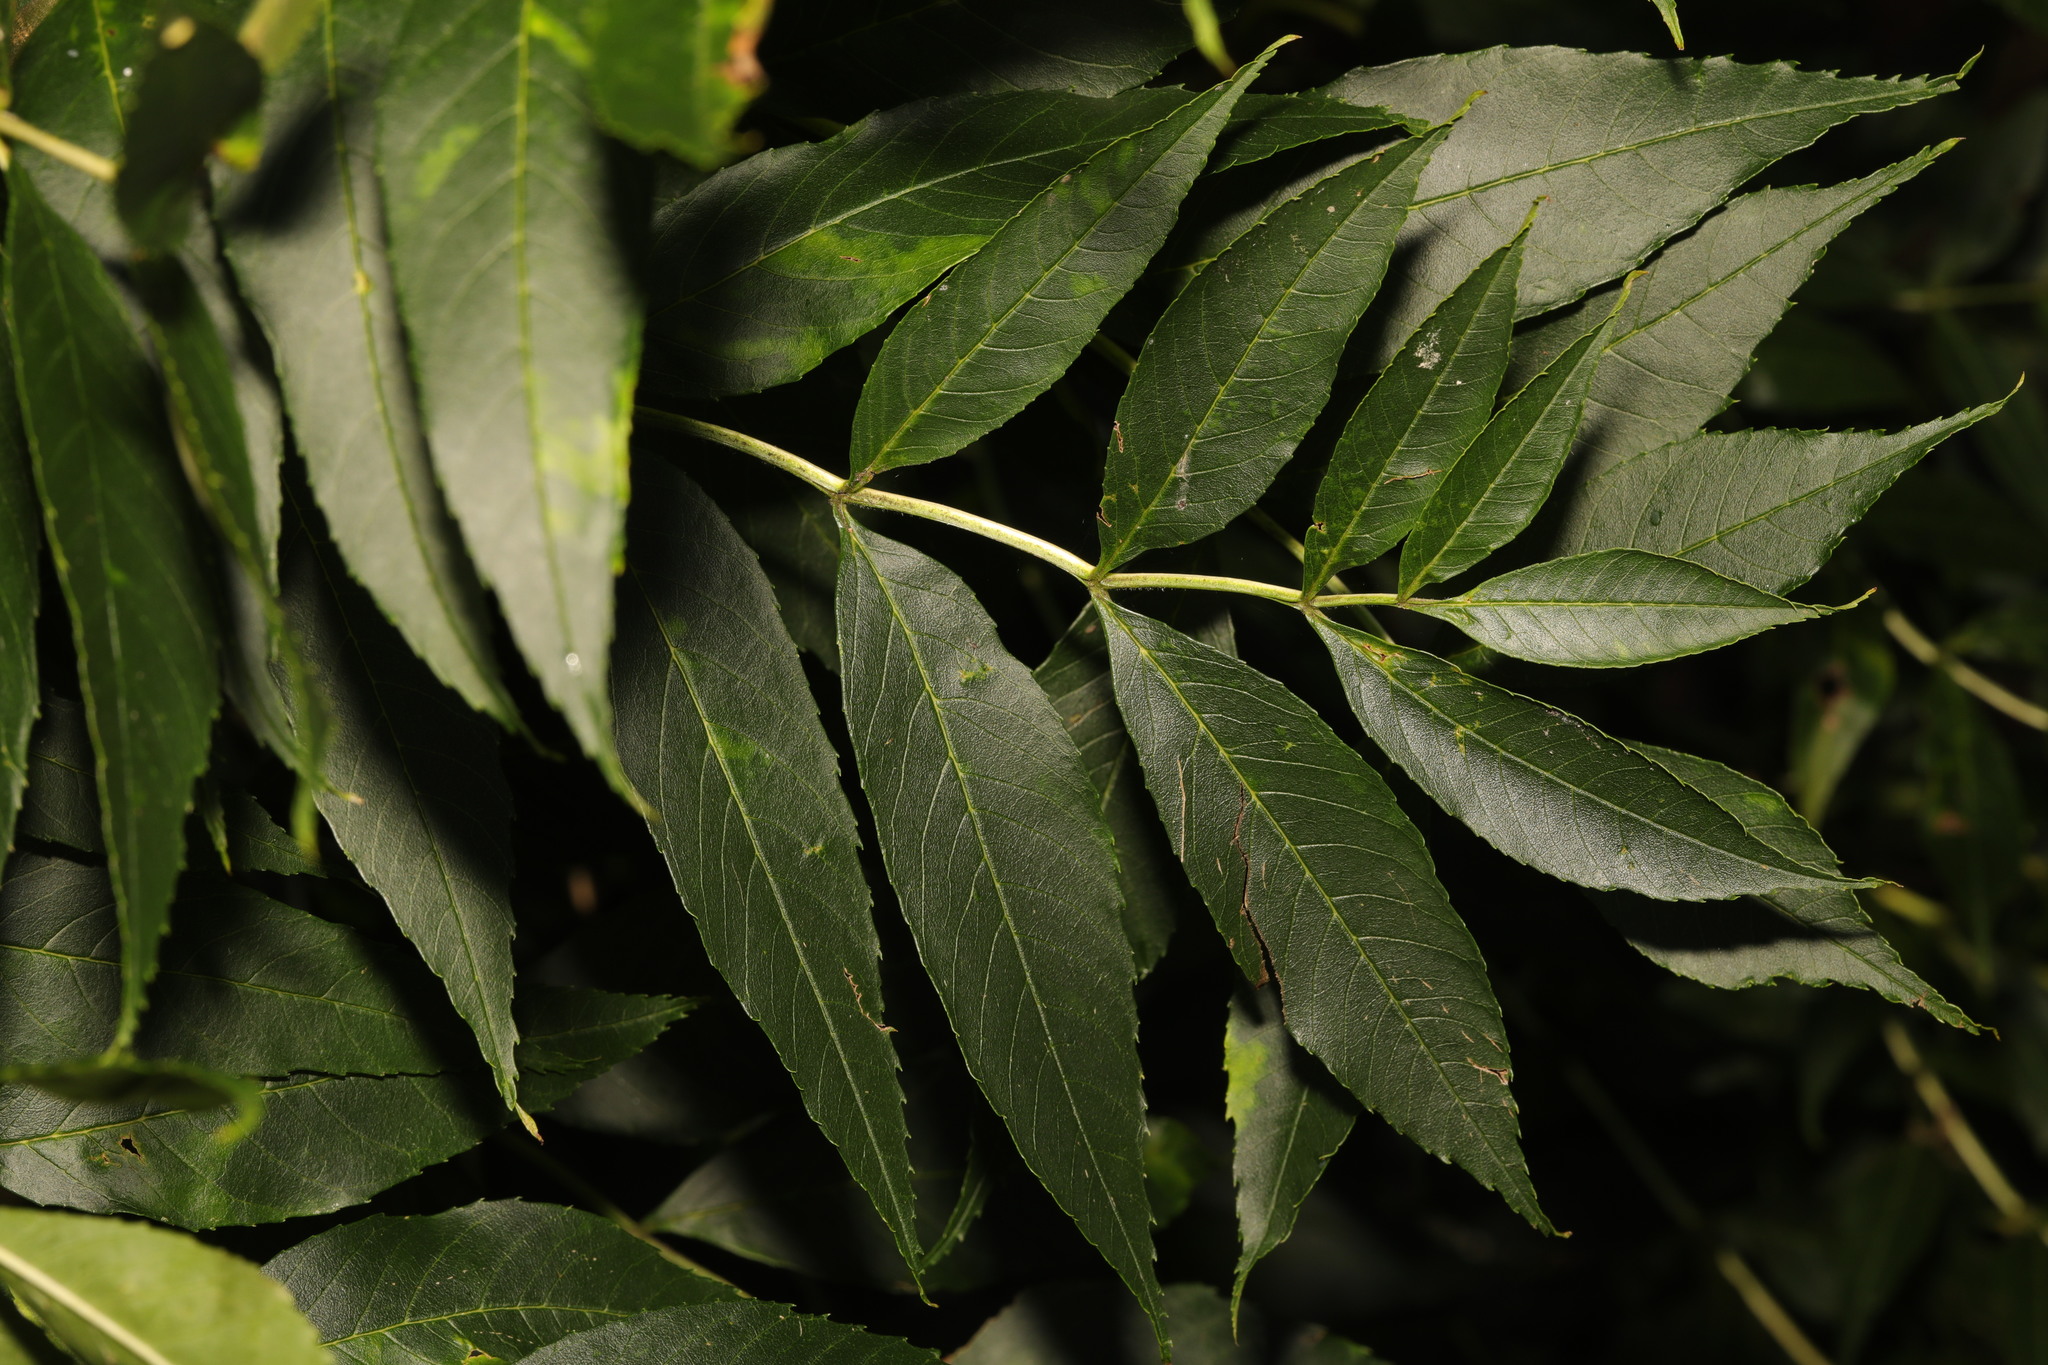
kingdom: Plantae
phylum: Tracheophyta
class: Magnoliopsida
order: Lamiales
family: Oleaceae
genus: Fraxinus
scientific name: Fraxinus excelsior
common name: European ash
